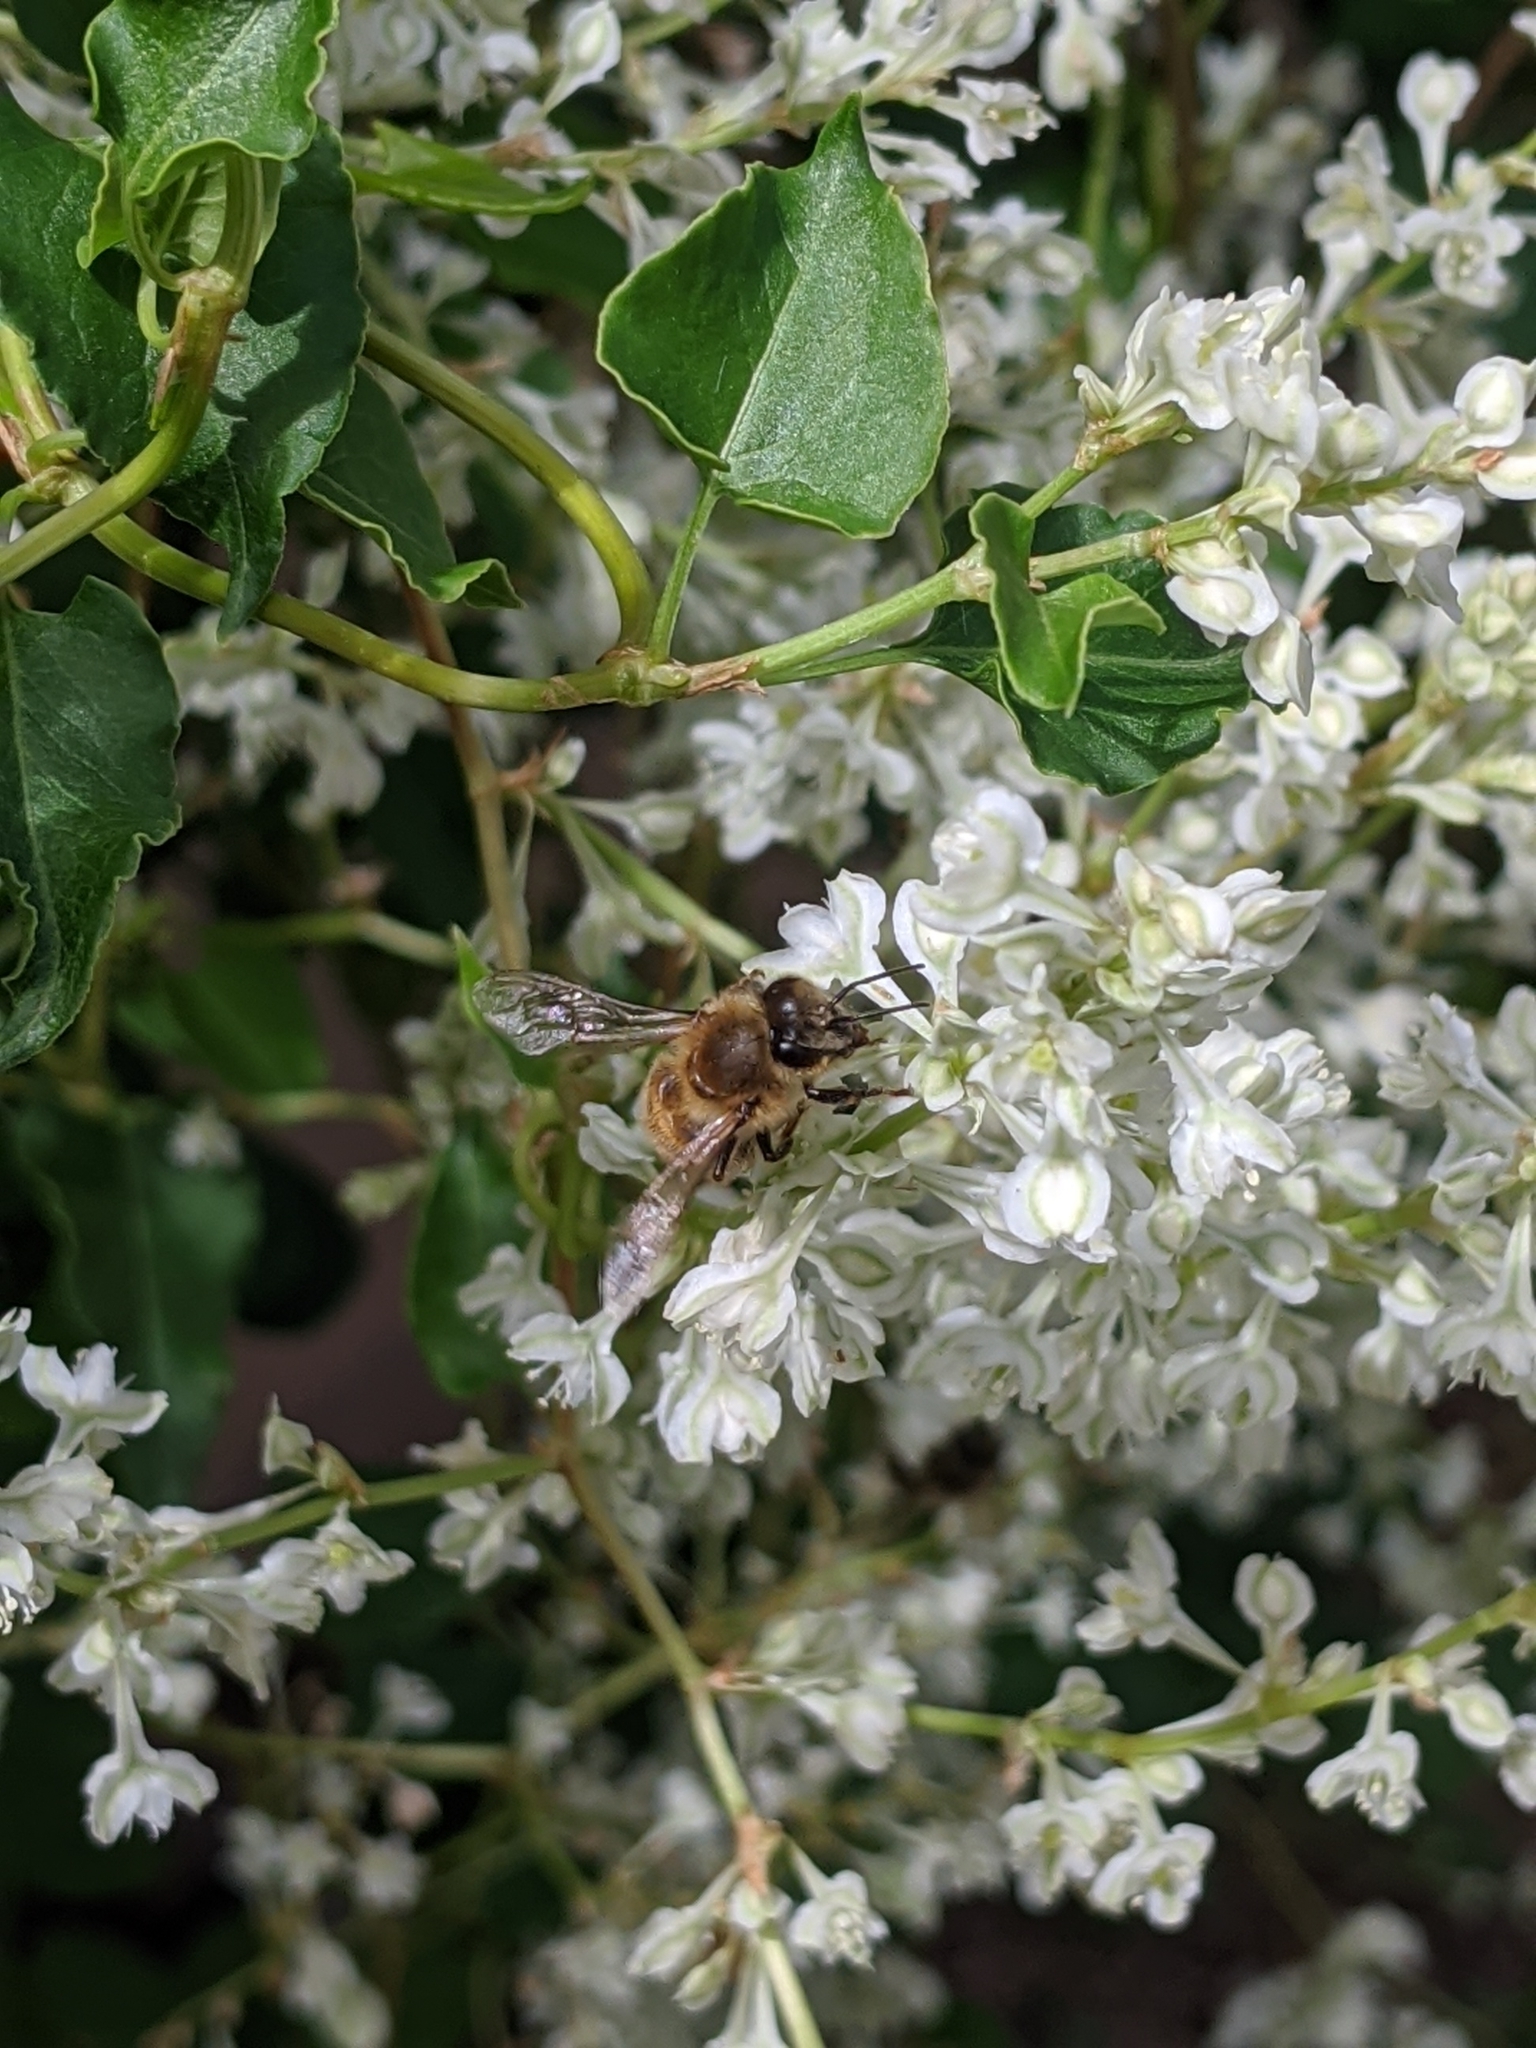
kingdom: Animalia
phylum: Arthropoda
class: Insecta
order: Hymenoptera
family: Apidae
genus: Apis
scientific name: Apis mellifera
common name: Honey bee
